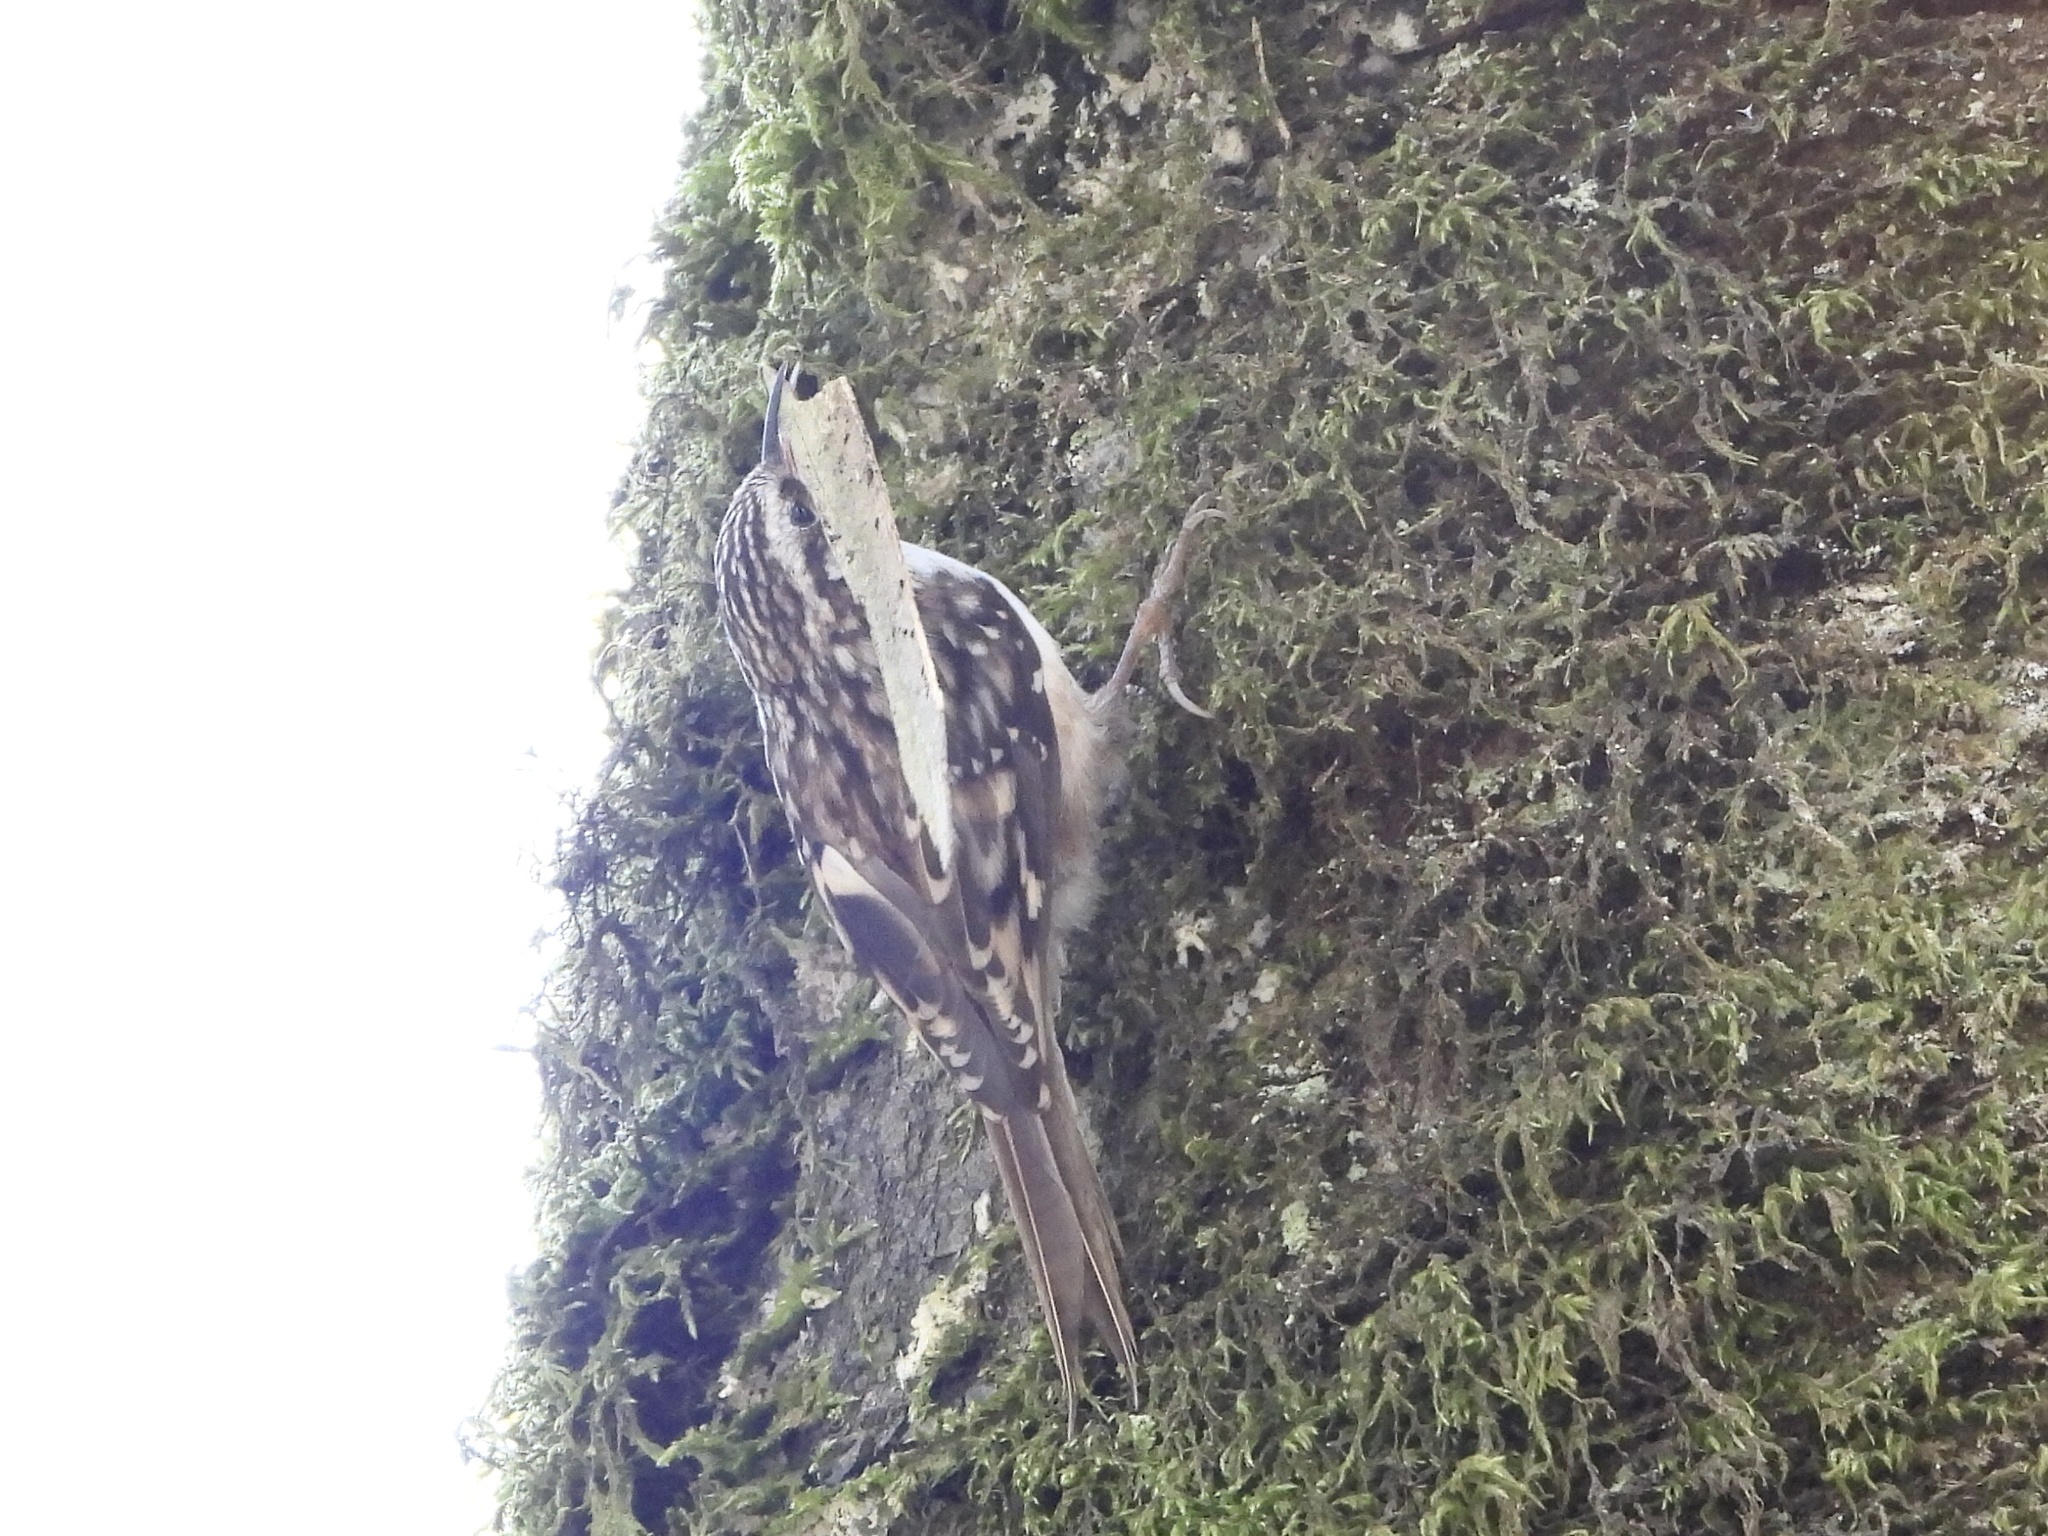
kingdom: Animalia
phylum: Chordata
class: Aves
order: Passeriformes
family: Certhiidae
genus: Certhia
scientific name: Certhia americana
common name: Brown creeper
